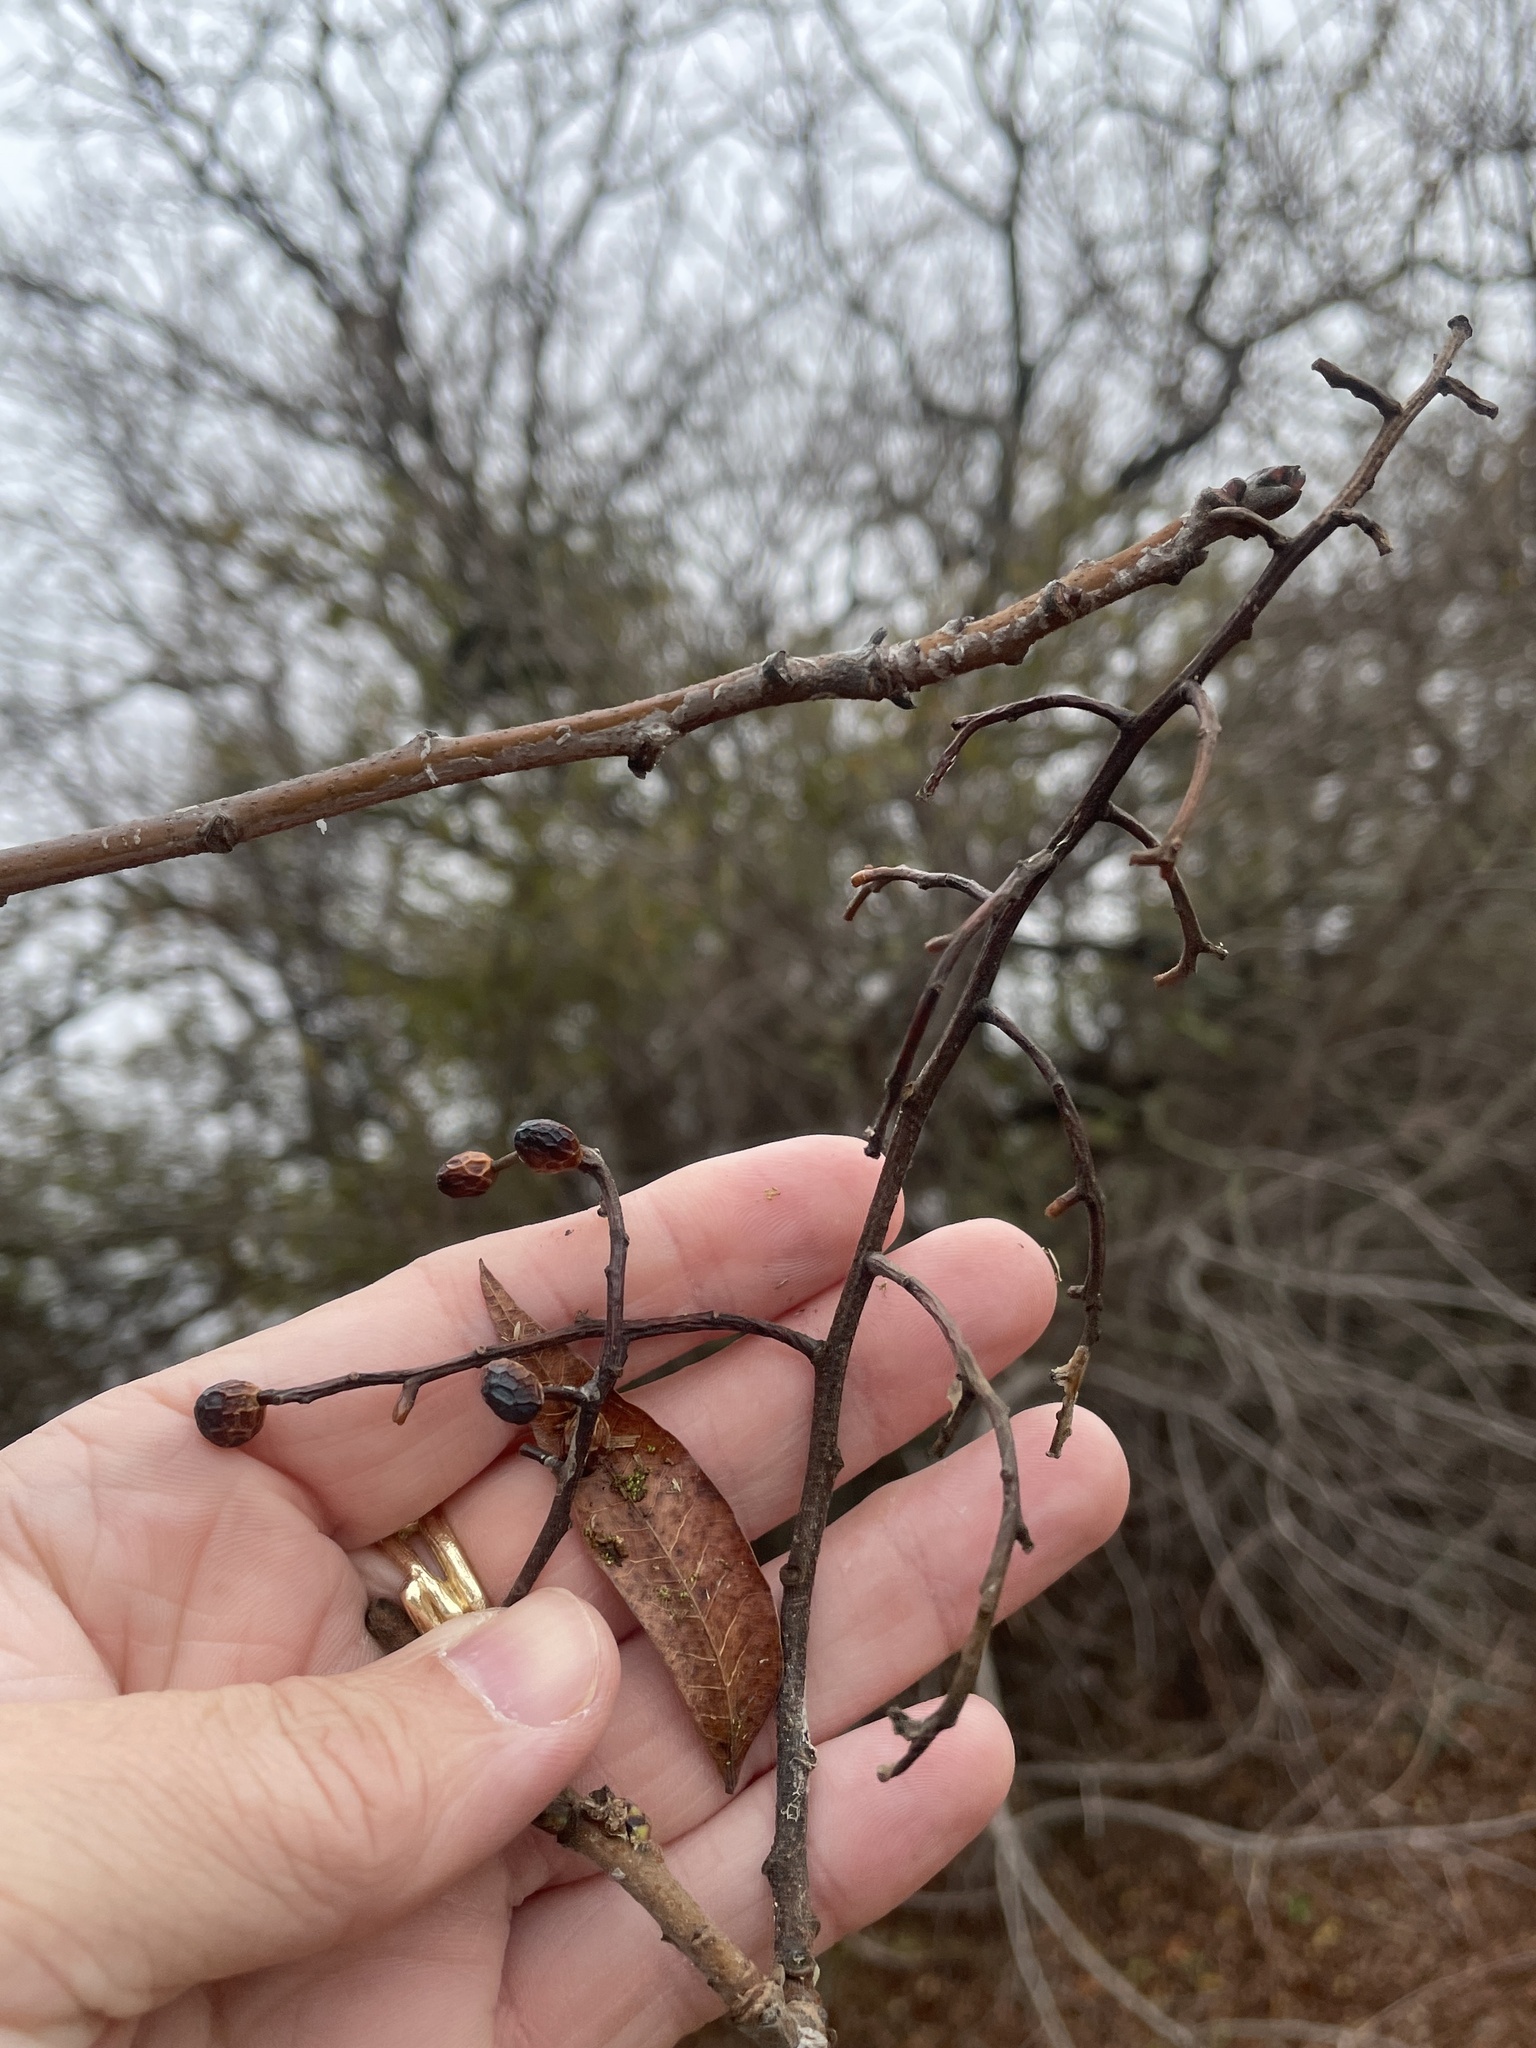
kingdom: Plantae
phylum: Tracheophyta
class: Magnoliopsida
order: Sapindales
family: Anacardiaceae
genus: Pistacia
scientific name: Pistacia chinensis
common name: Chinese pistache
